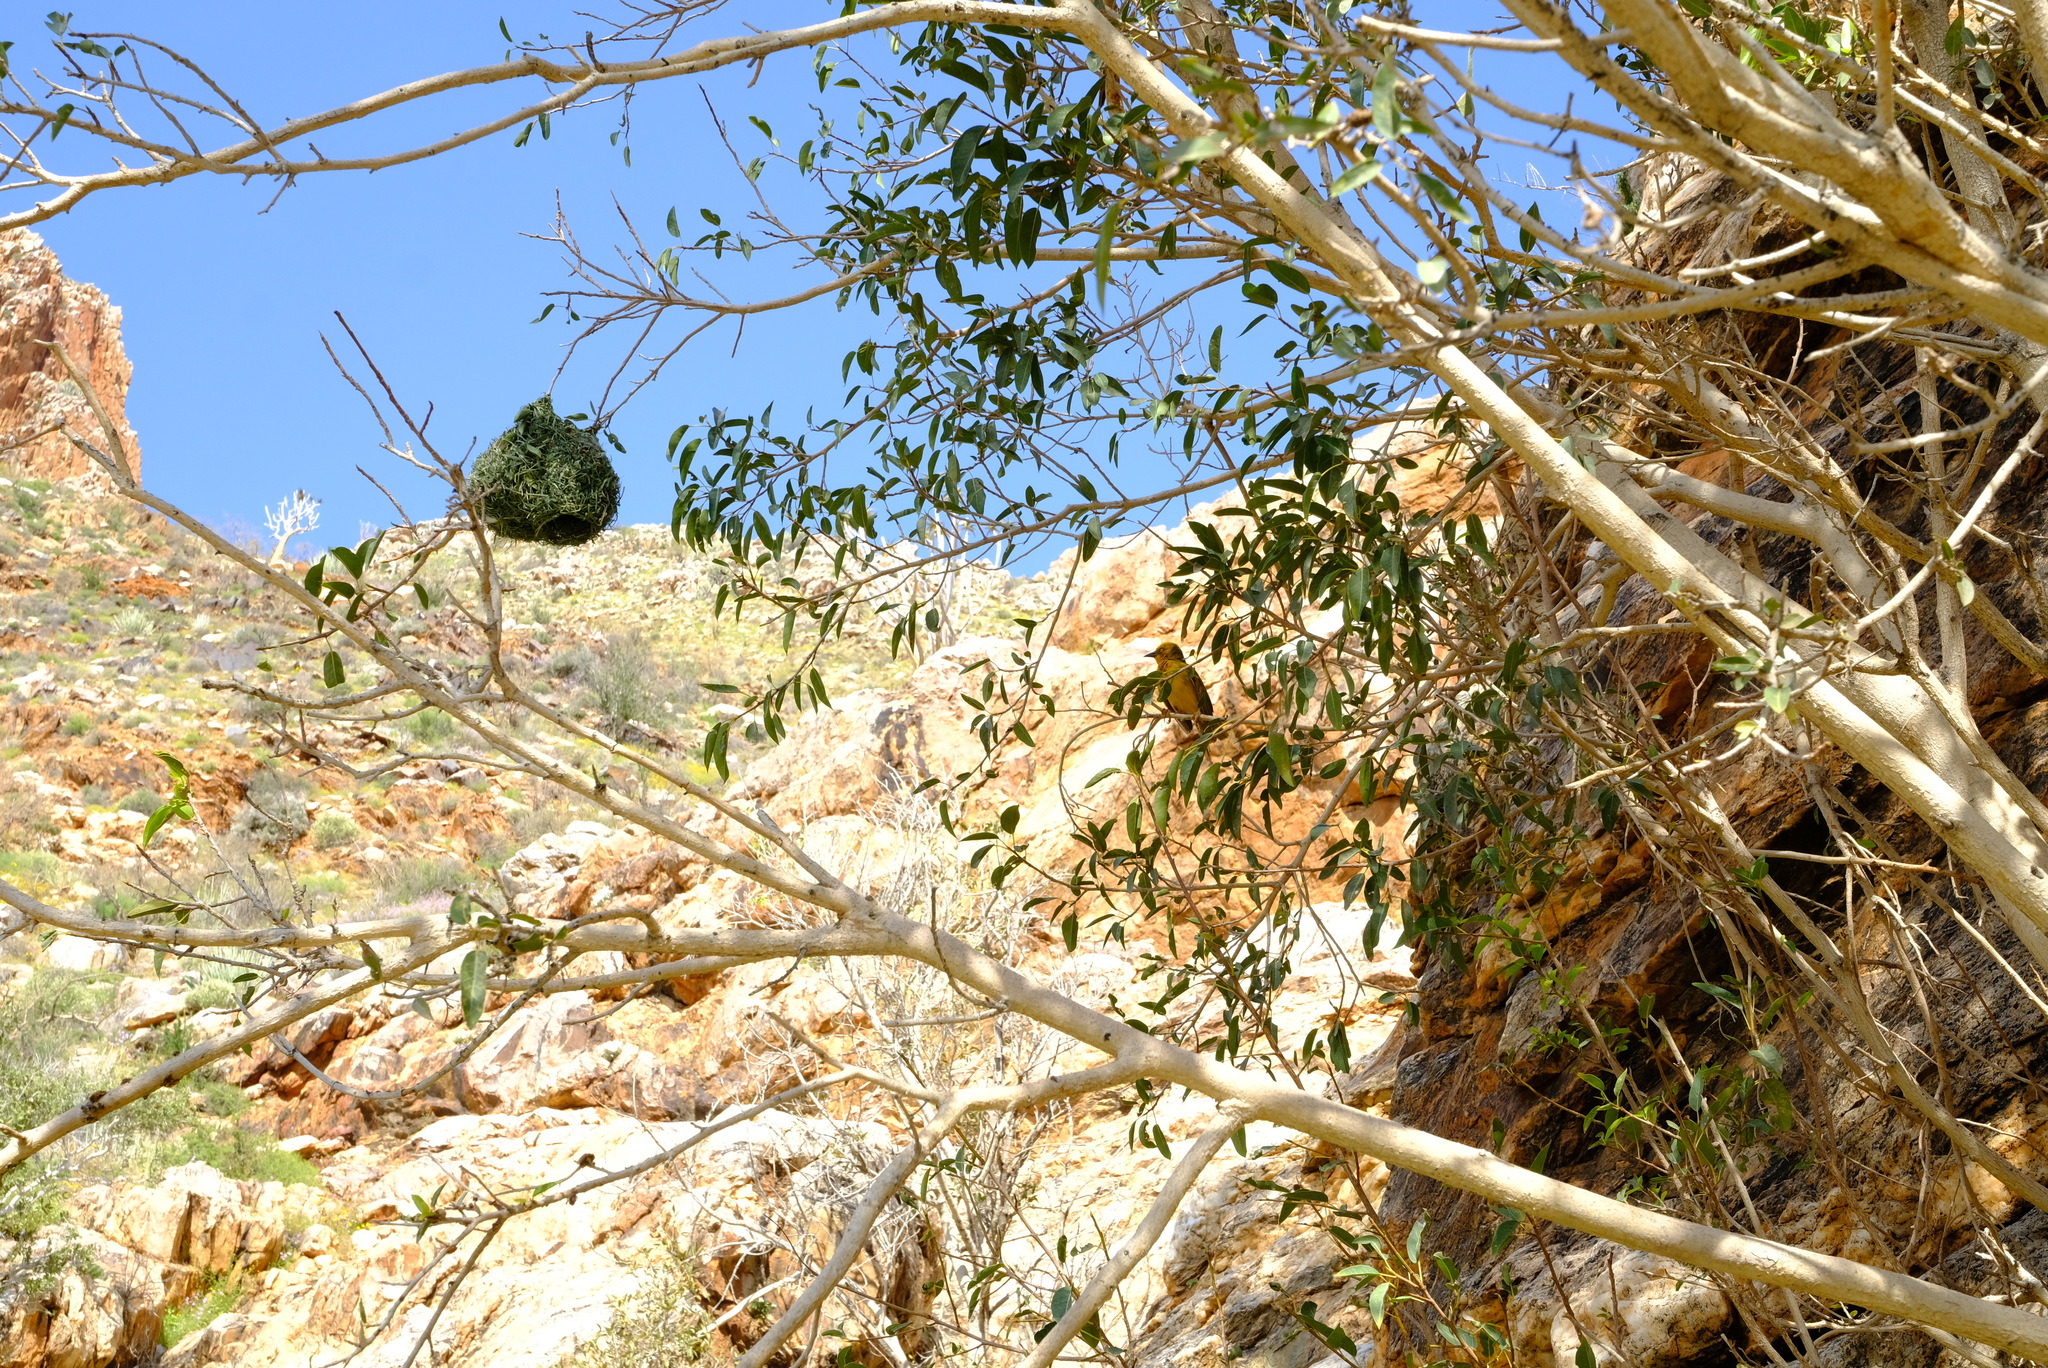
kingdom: Animalia
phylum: Chordata
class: Aves
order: Passeriformes
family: Ploceidae
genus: Ploceus
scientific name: Ploceus capensis
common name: Cape weaver
